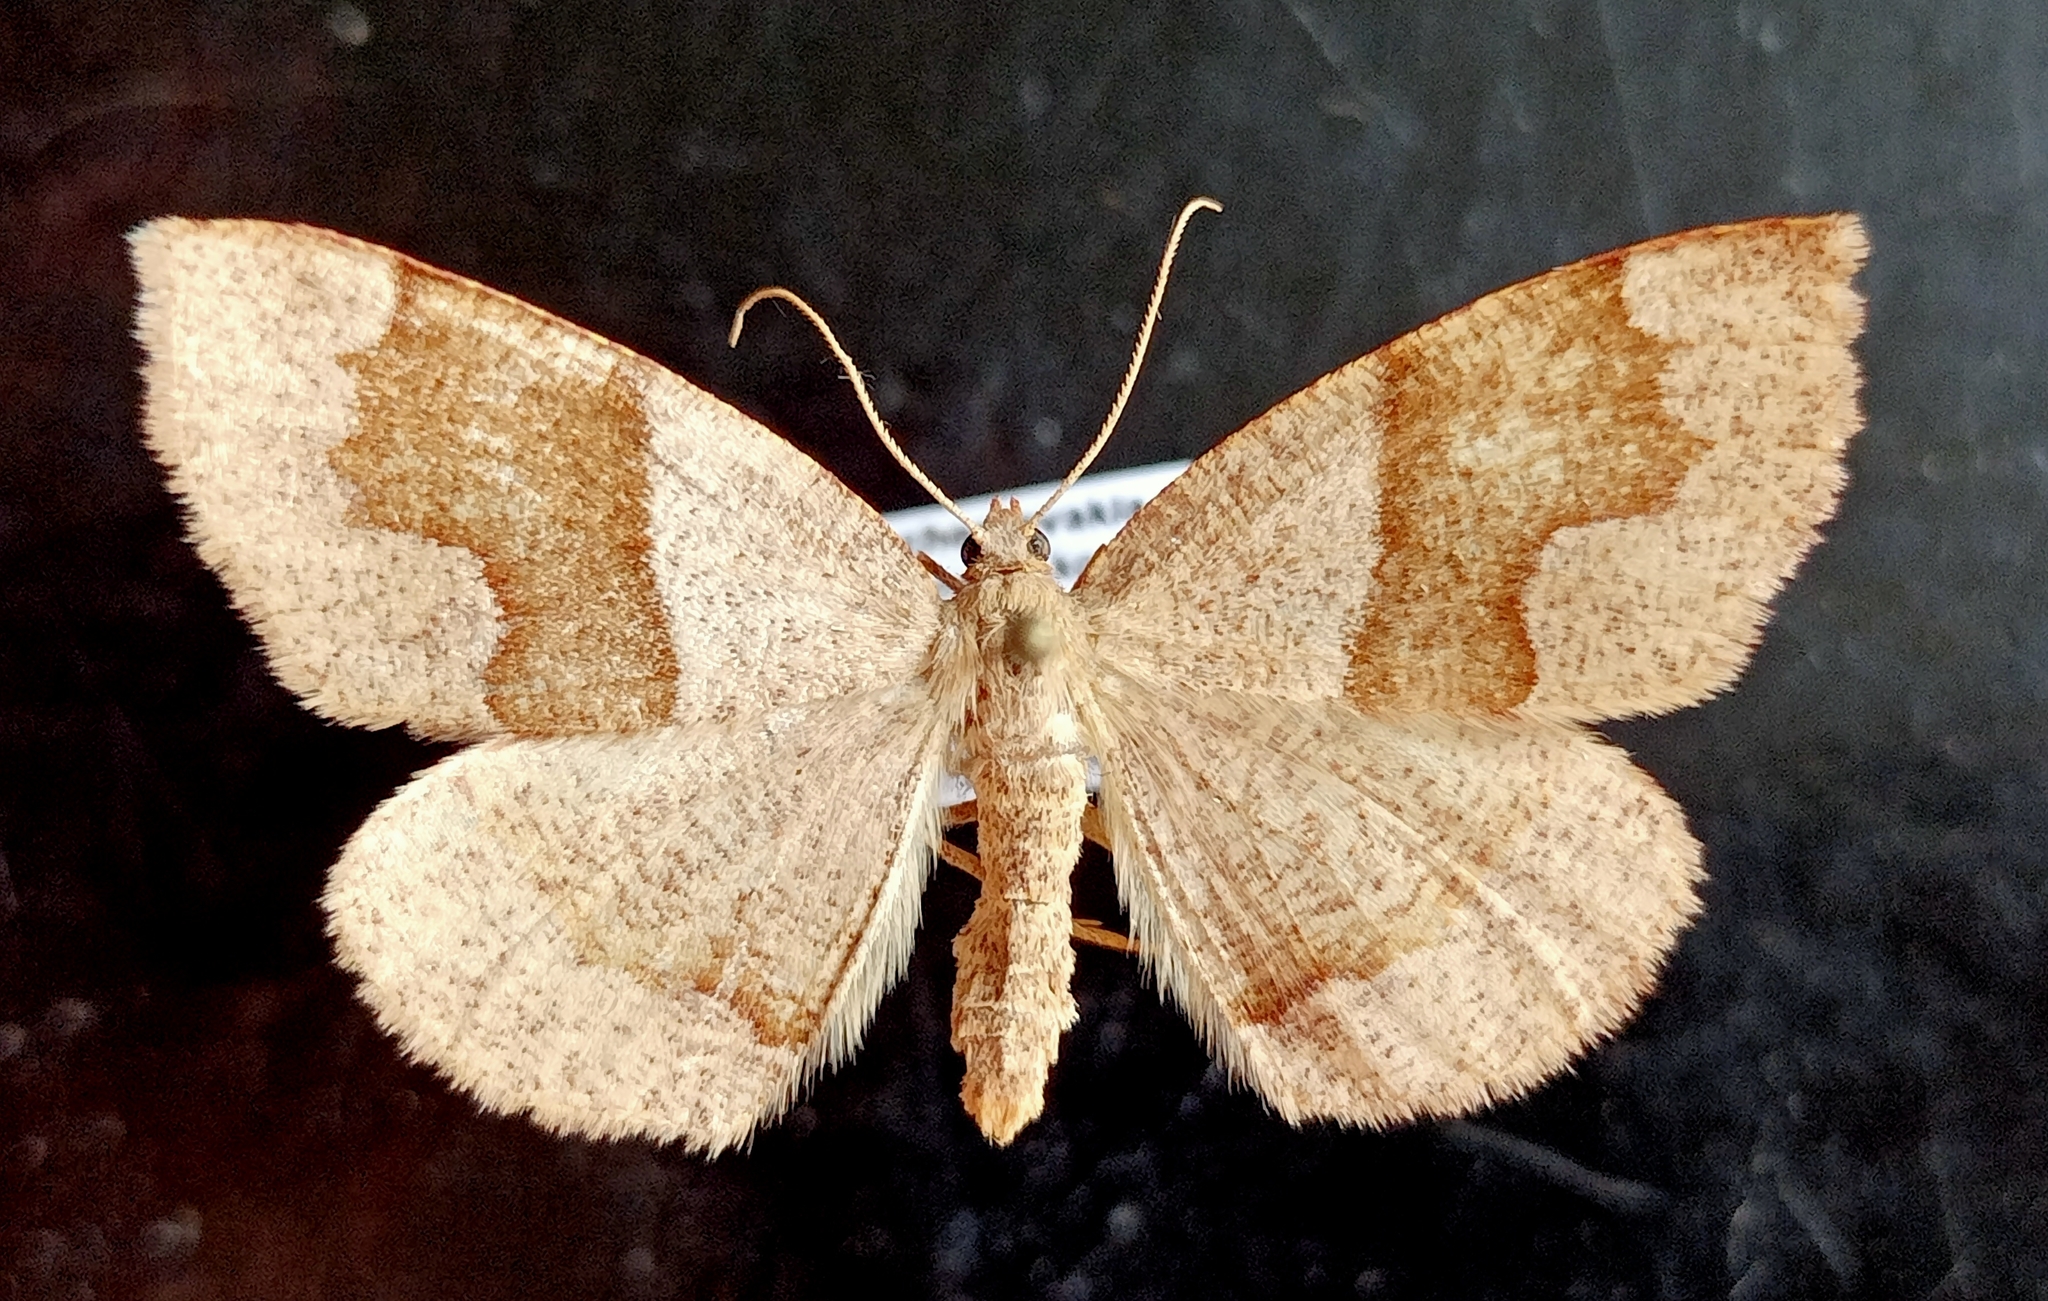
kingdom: Animalia
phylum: Arthropoda
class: Insecta
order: Lepidoptera
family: Geometridae
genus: Plagodis
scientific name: Plagodis pulveraria
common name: Barred umber
